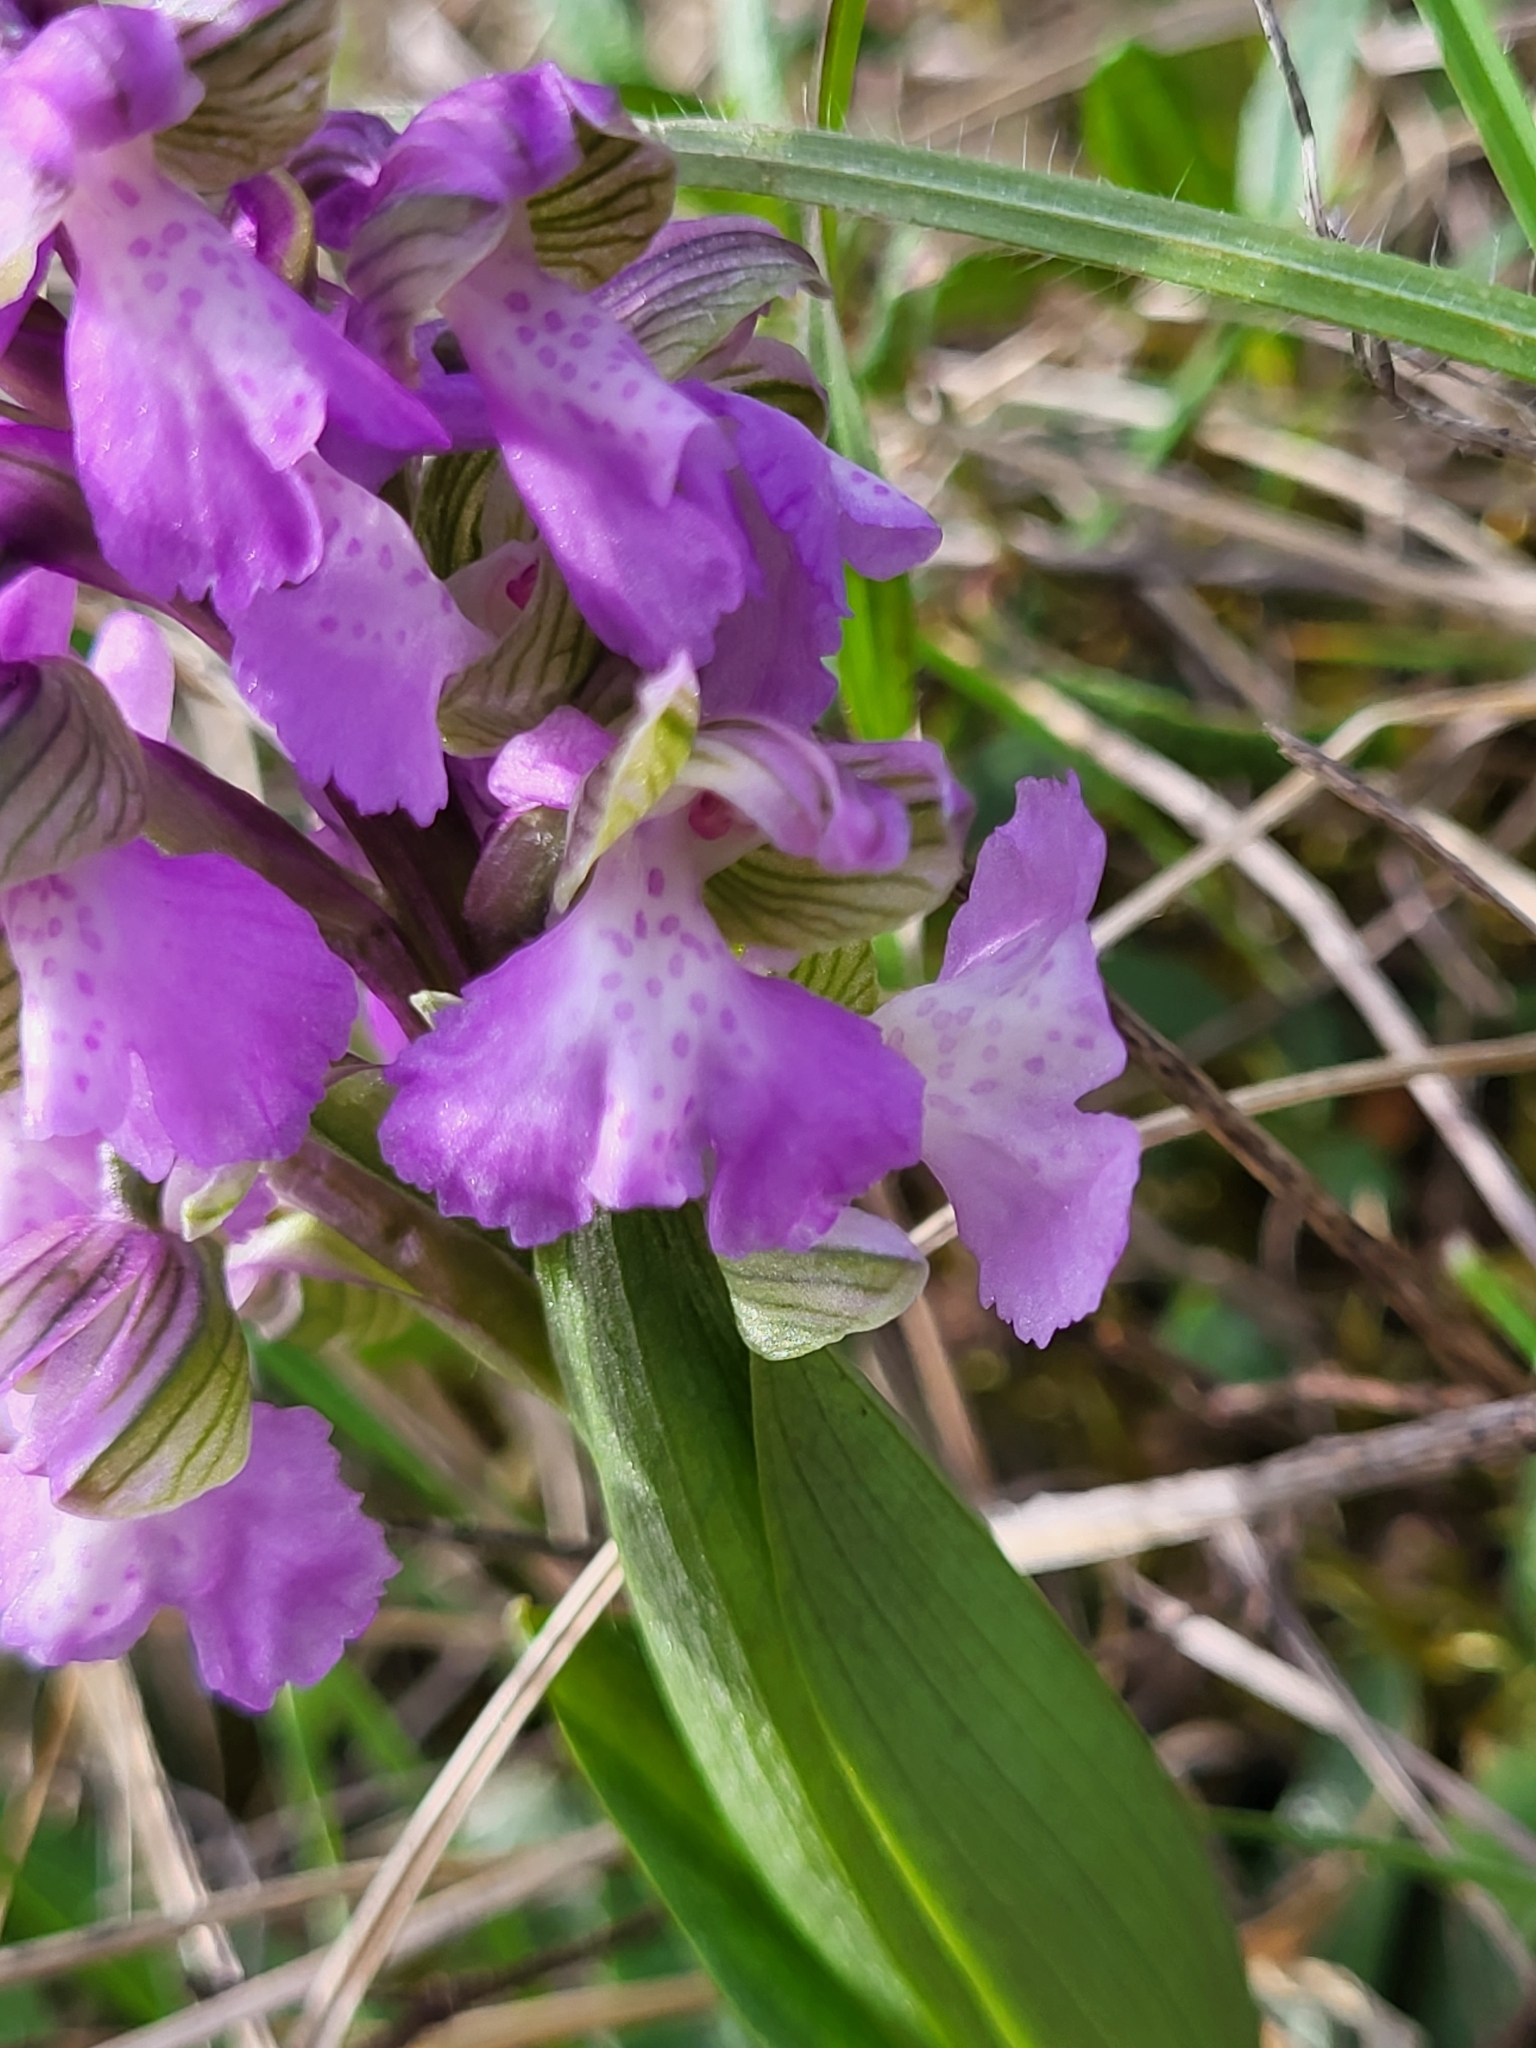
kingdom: Plantae
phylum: Tracheophyta
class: Liliopsida
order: Asparagales
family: Orchidaceae
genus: Anacamptis
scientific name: Anacamptis morio
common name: Green-winged orchid
